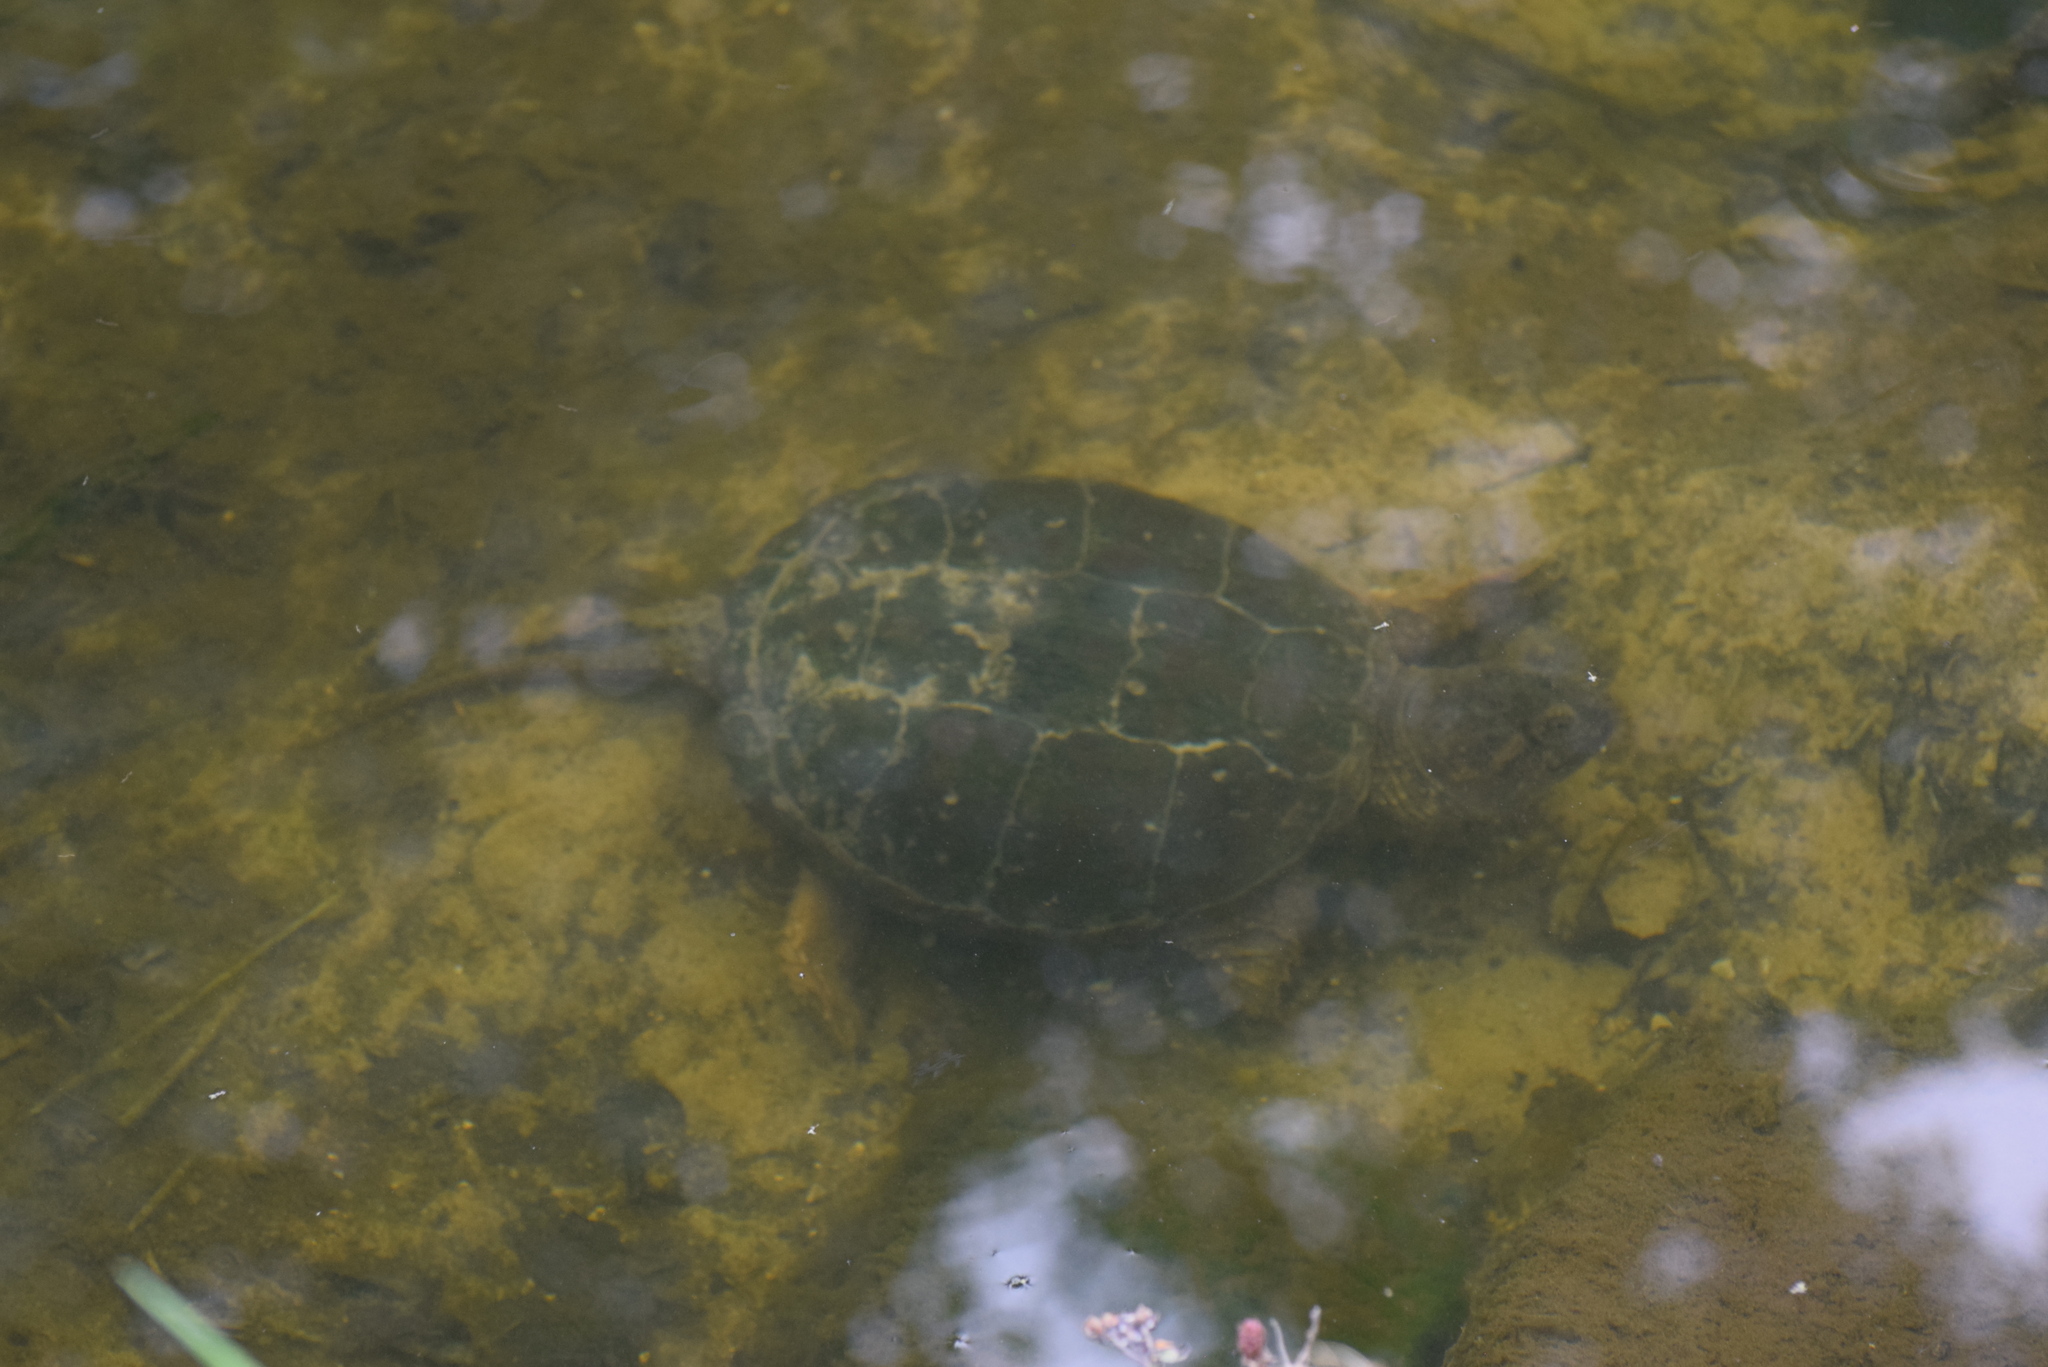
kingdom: Animalia
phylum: Chordata
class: Testudines
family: Chelydridae
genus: Chelydra
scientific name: Chelydra serpentina
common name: Common snapping turtle
